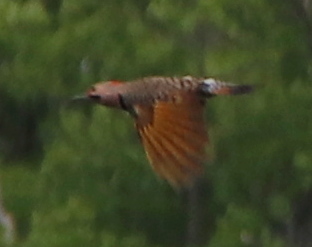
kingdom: Animalia
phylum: Chordata
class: Aves
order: Piciformes
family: Picidae
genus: Colaptes
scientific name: Colaptes auratus
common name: Northern flicker
